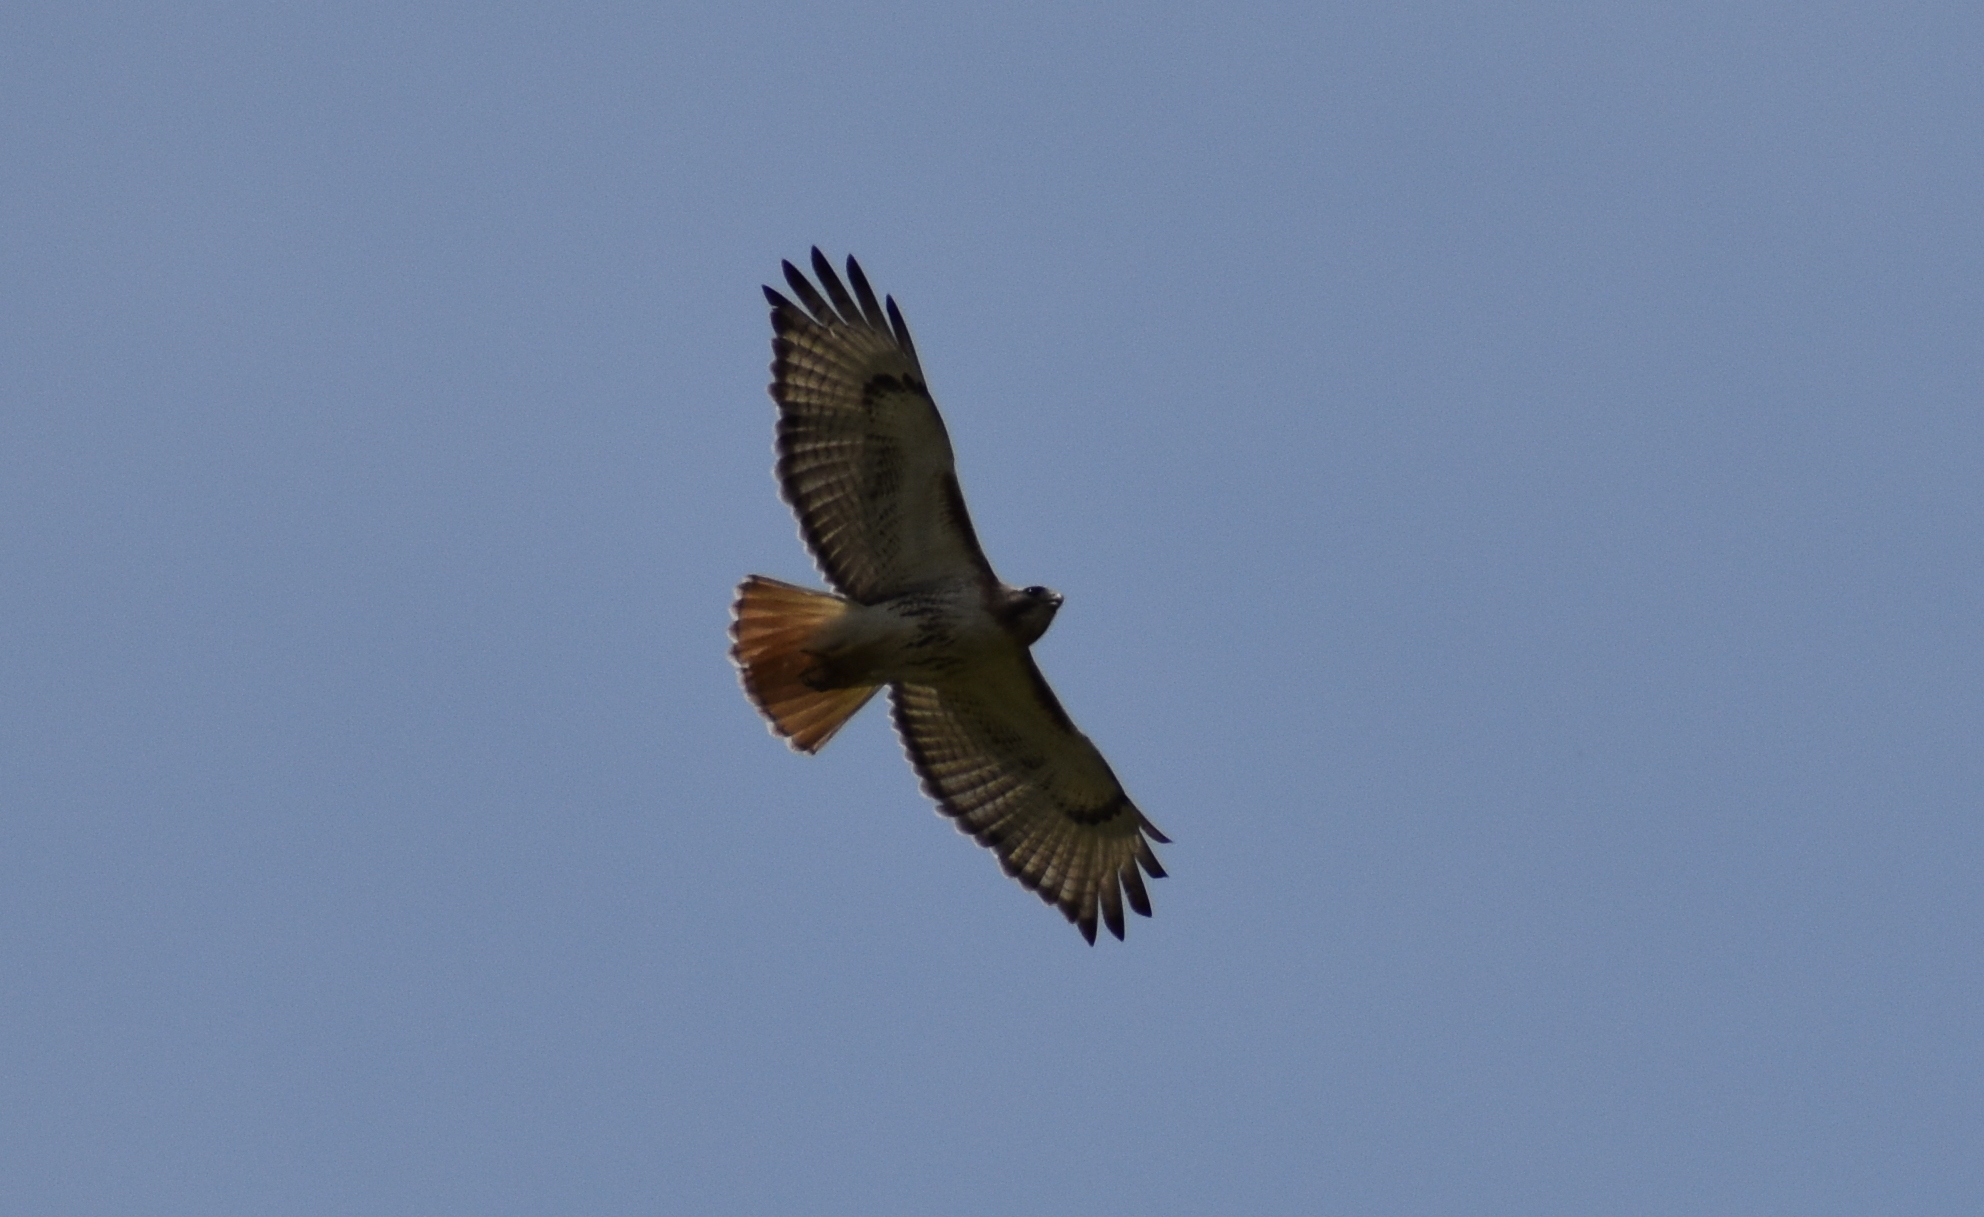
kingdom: Animalia
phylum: Chordata
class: Aves
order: Accipitriformes
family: Accipitridae
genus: Buteo
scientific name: Buteo jamaicensis
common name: Red-tailed hawk
